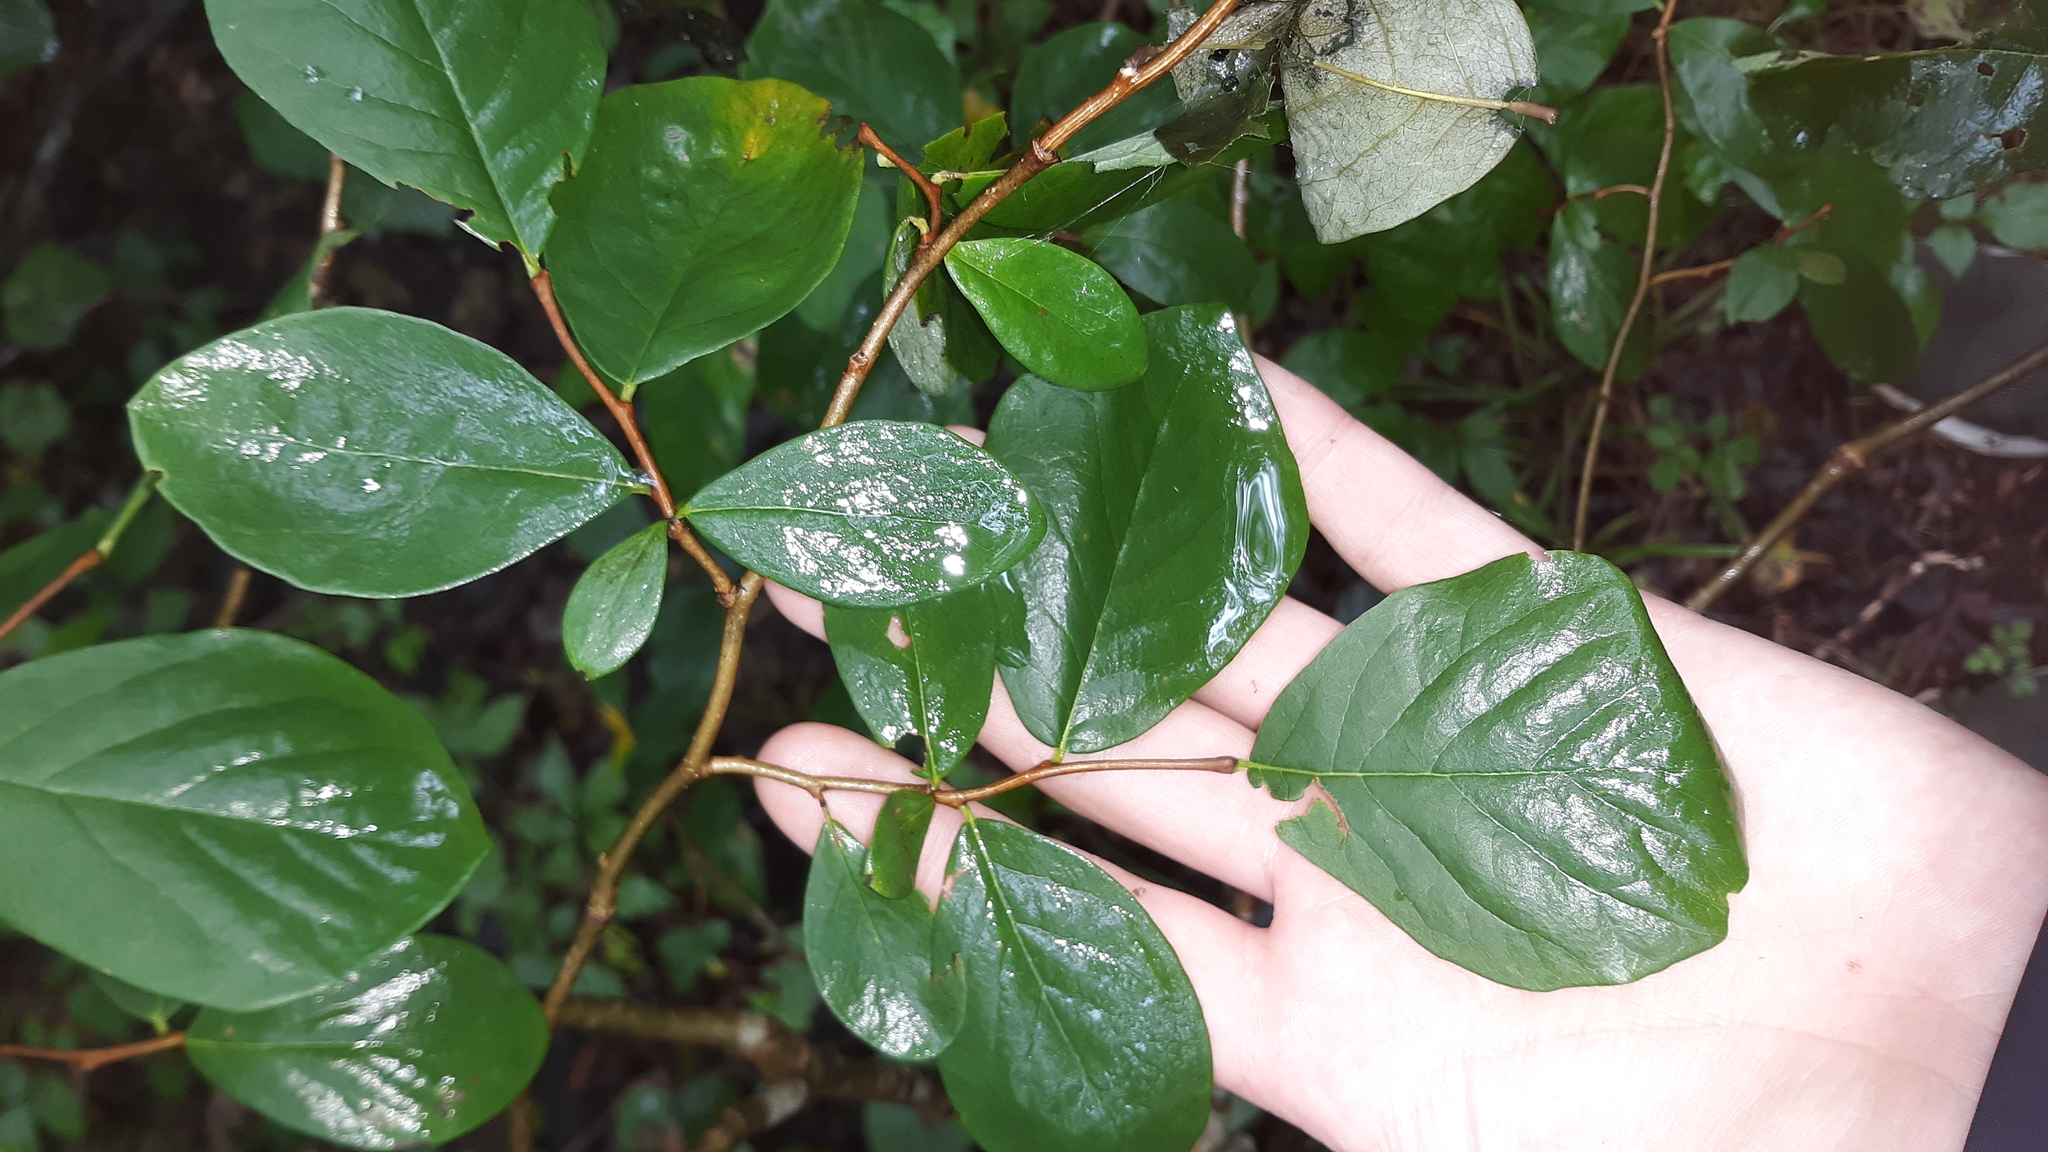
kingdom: Plantae
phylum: Tracheophyta
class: Magnoliopsida
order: Malvales
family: Thymelaeaceae
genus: Dirca
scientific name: Dirca palustris
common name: Leatherwood
